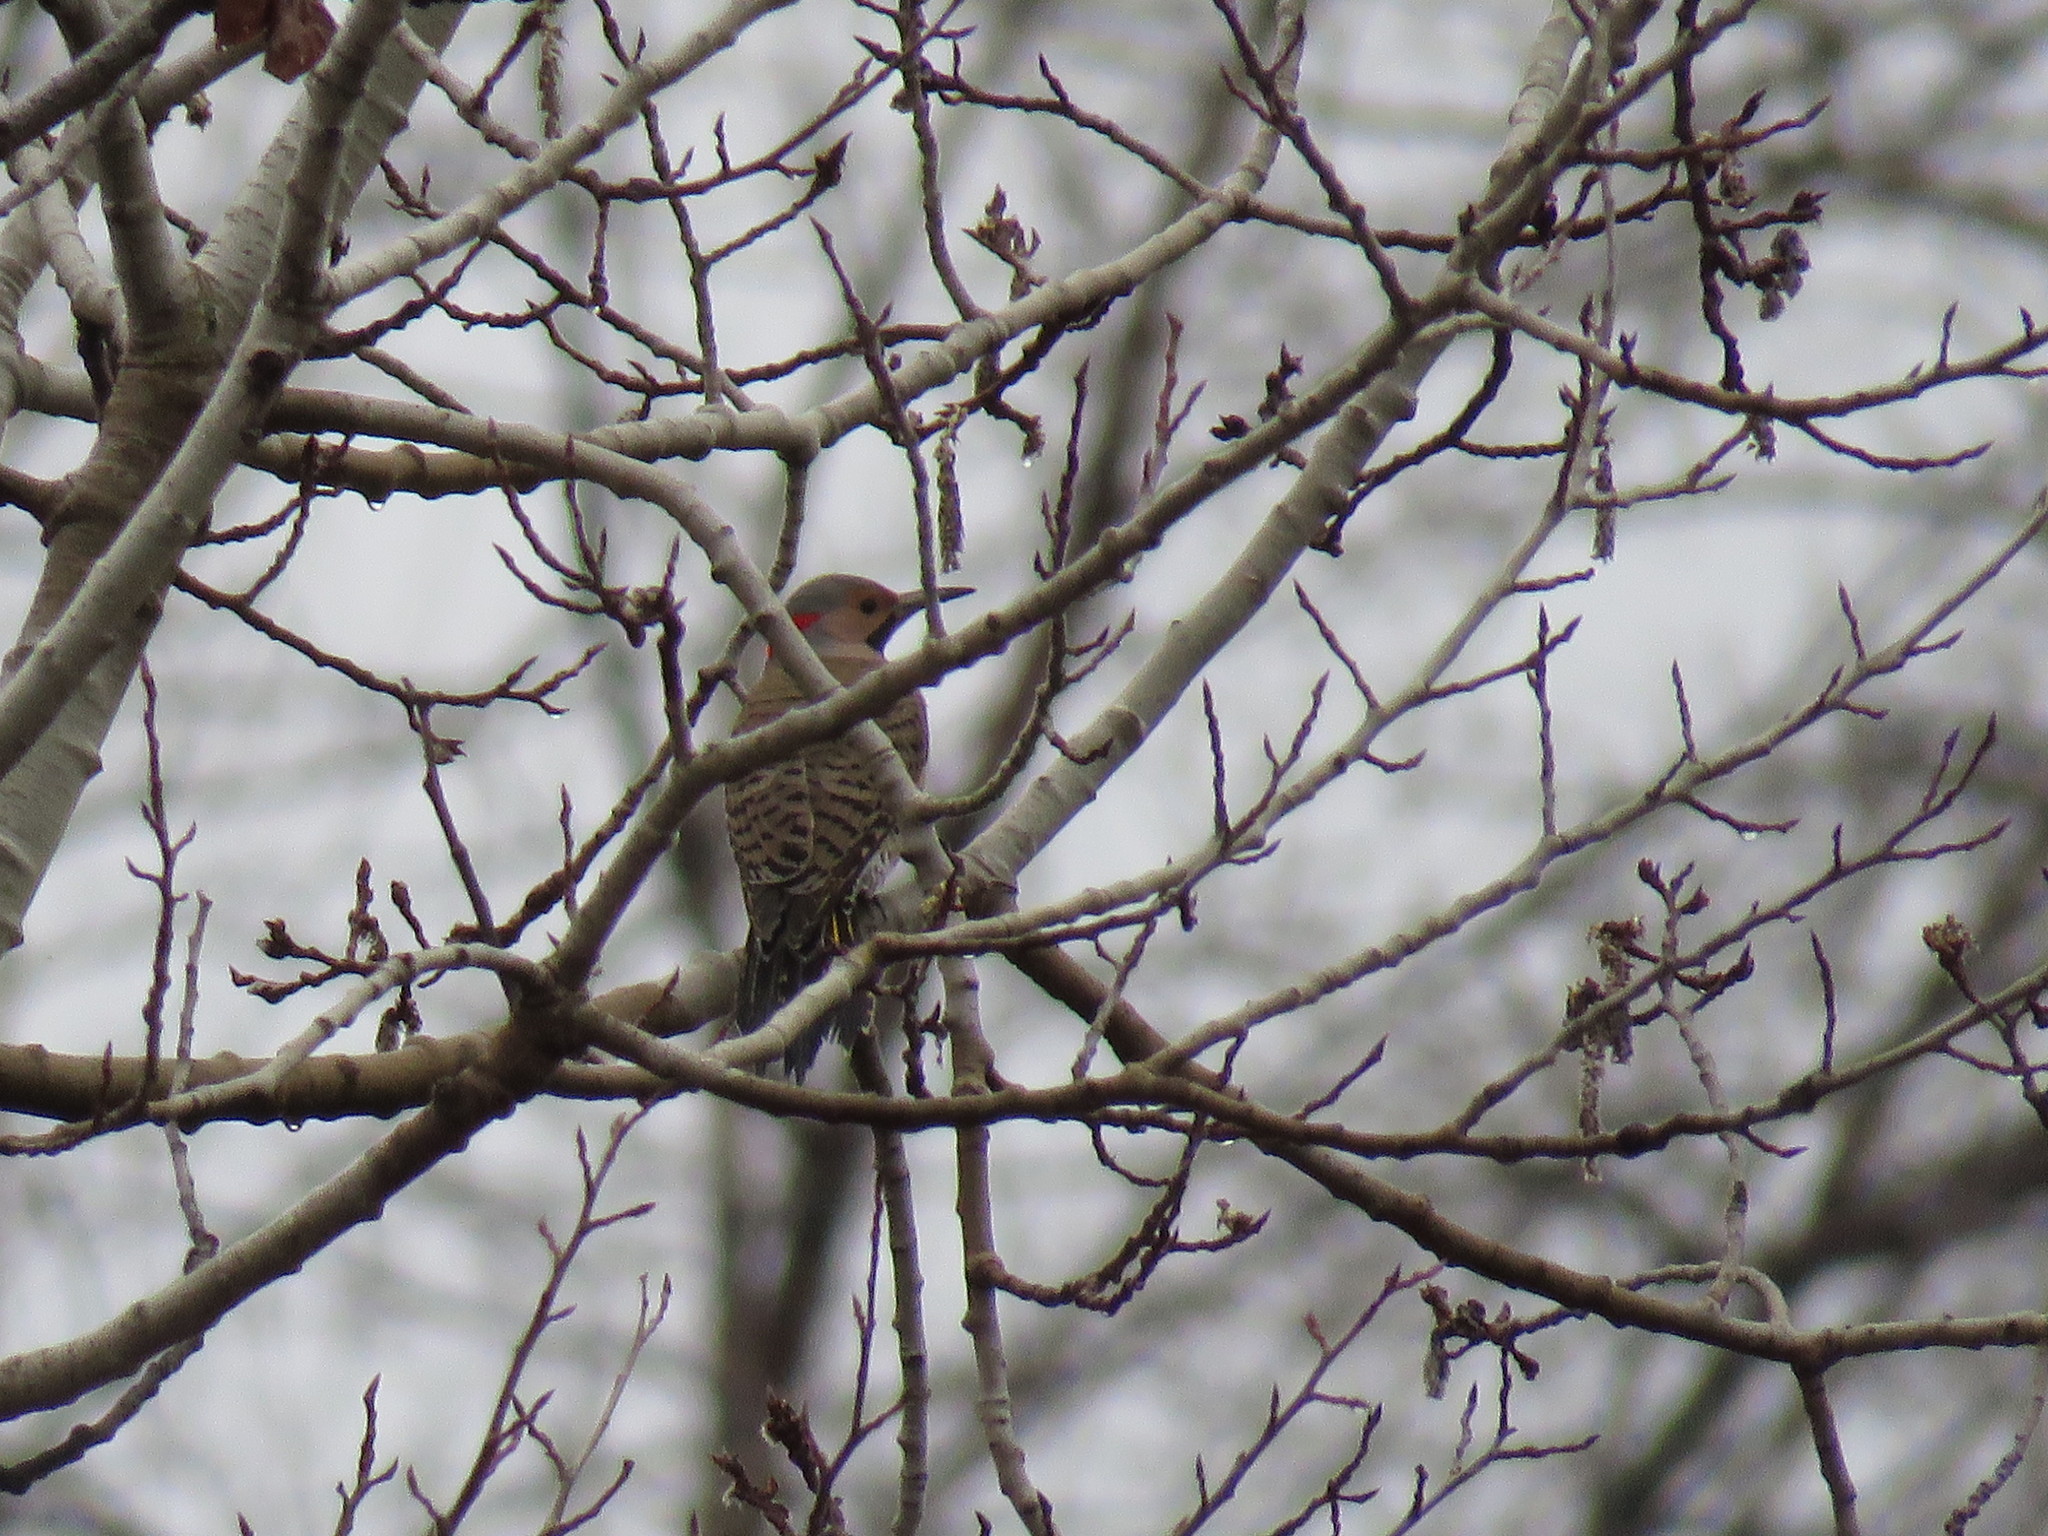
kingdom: Animalia
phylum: Chordata
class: Aves
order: Piciformes
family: Picidae
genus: Colaptes
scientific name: Colaptes auratus
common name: Northern flicker
